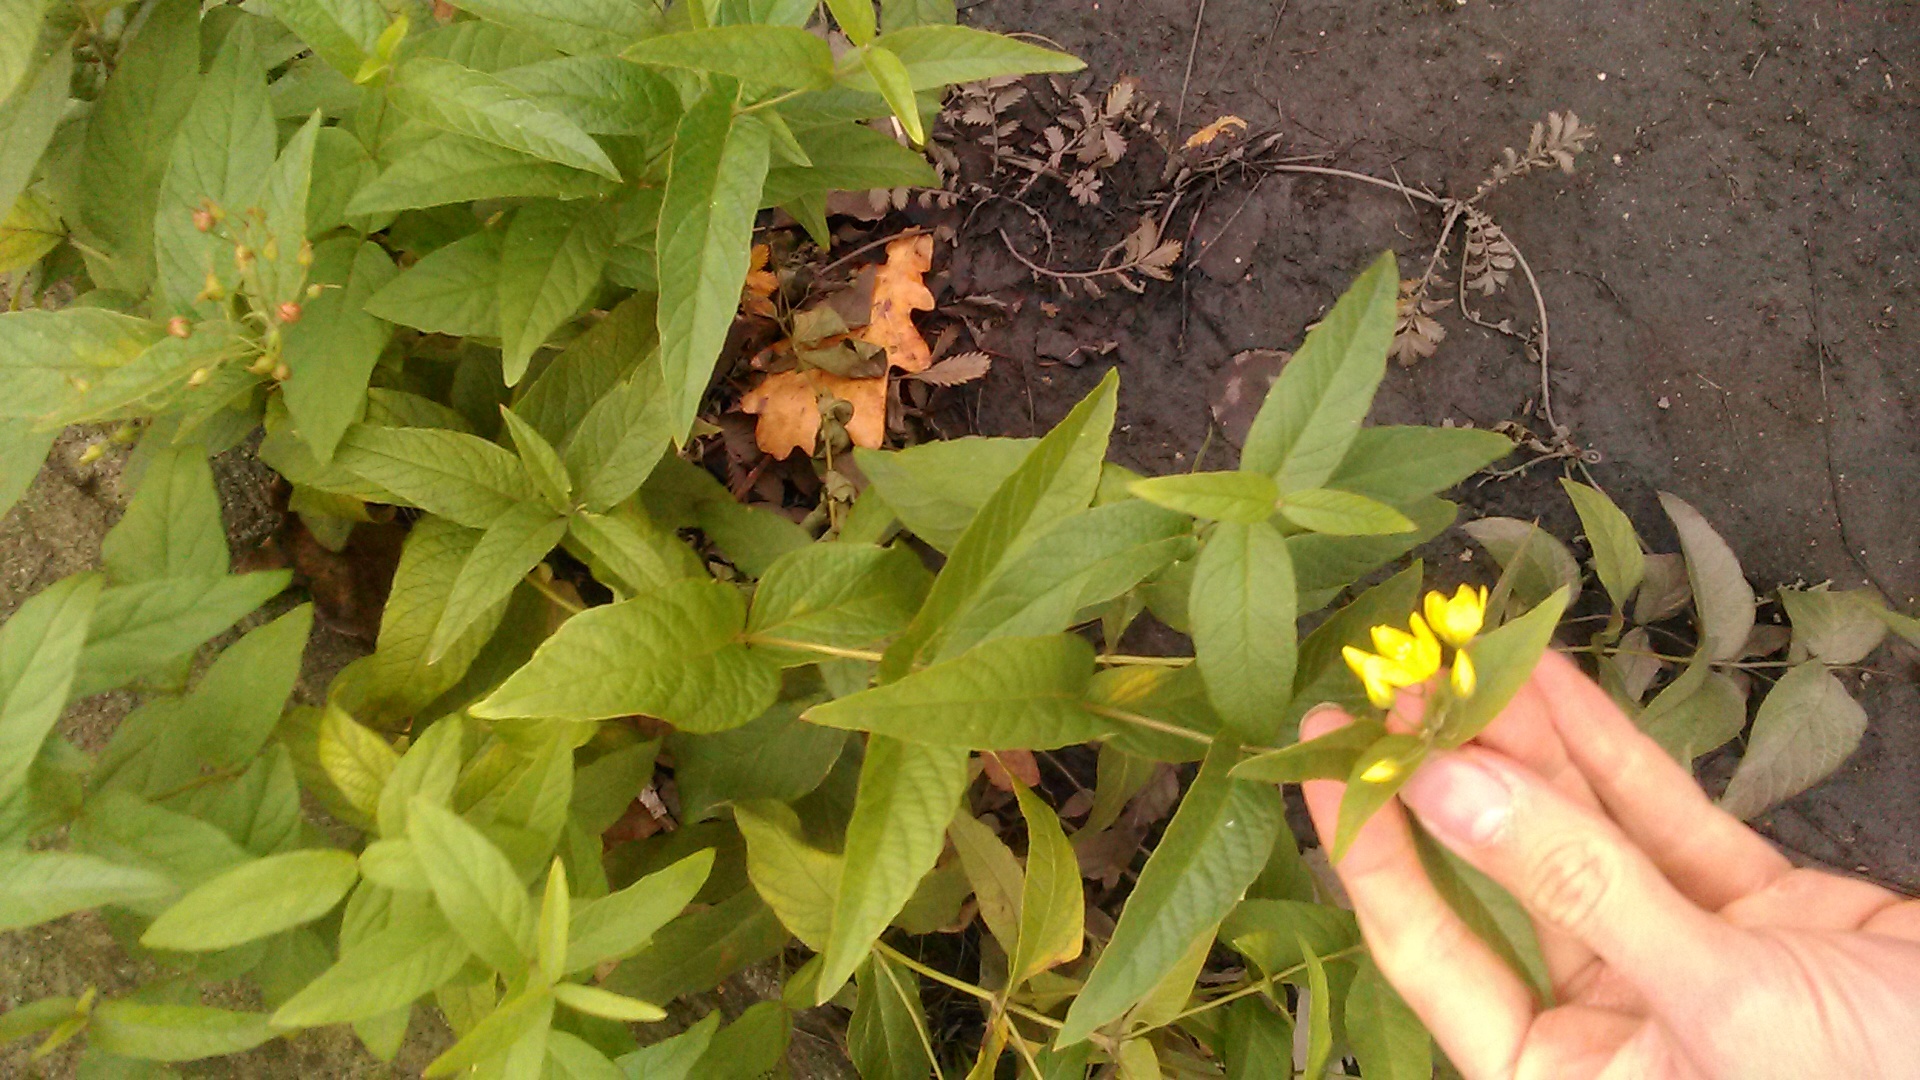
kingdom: Plantae
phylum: Tracheophyta
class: Magnoliopsida
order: Ericales
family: Primulaceae
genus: Lysimachia
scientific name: Lysimachia vulgaris
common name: Yellow loosestrife
